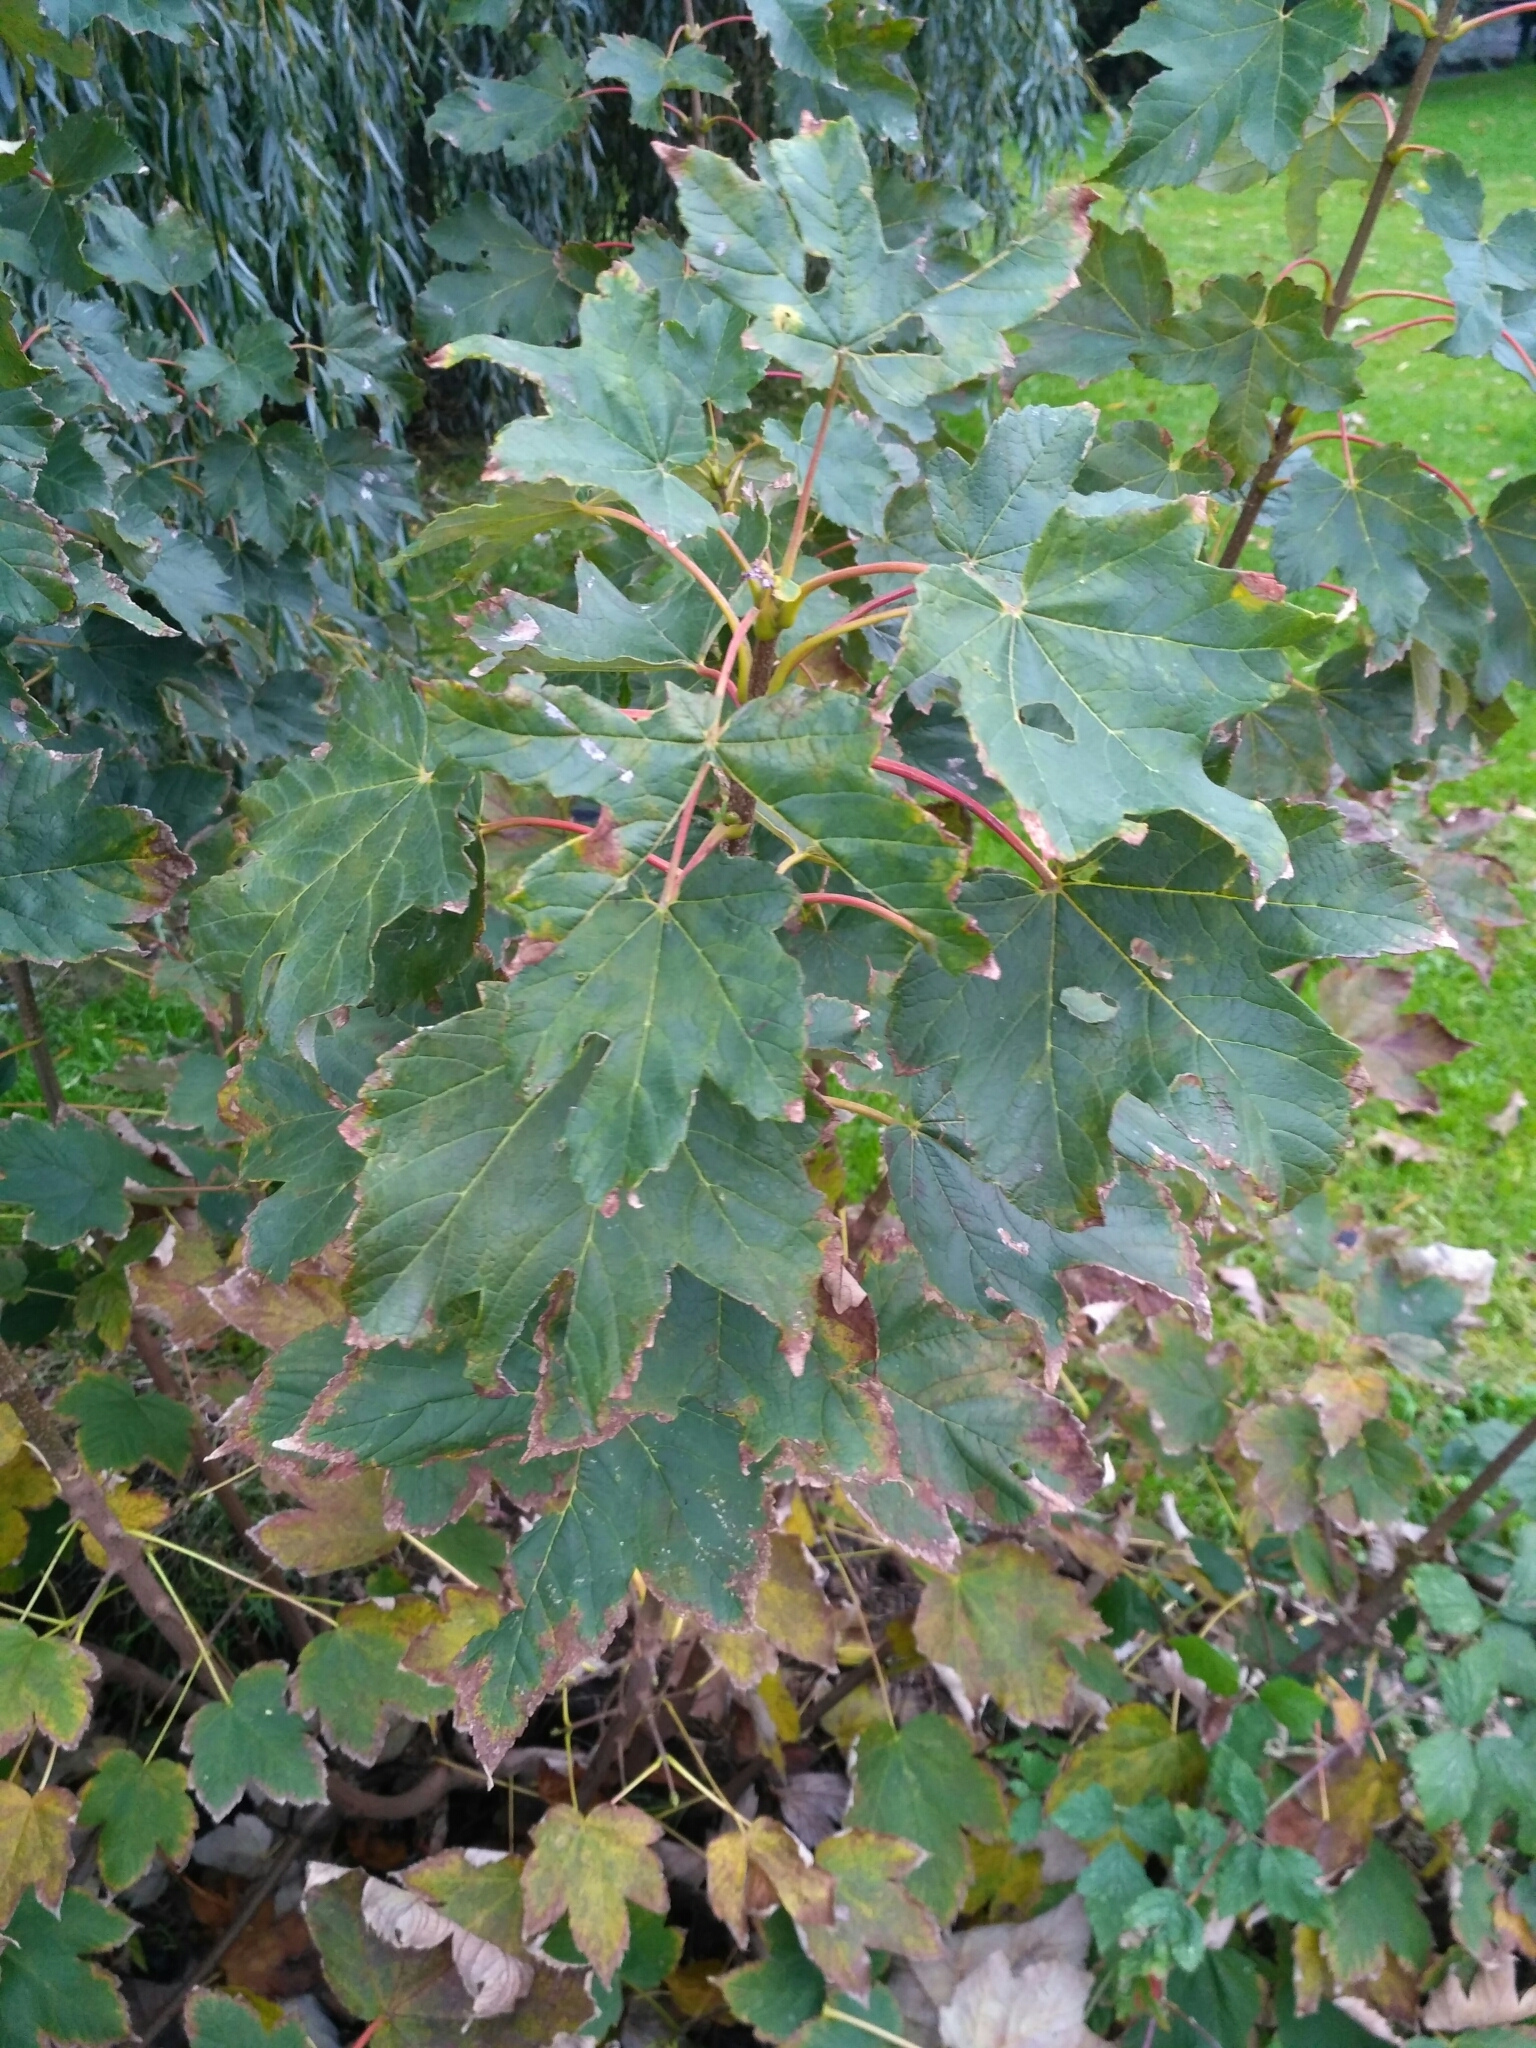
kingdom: Plantae
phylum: Tracheophyta
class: Magnoliopsida
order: Sapindales
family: Sapindaceae
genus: Acer
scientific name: Acer pseudoplatanus
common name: Sycamore
